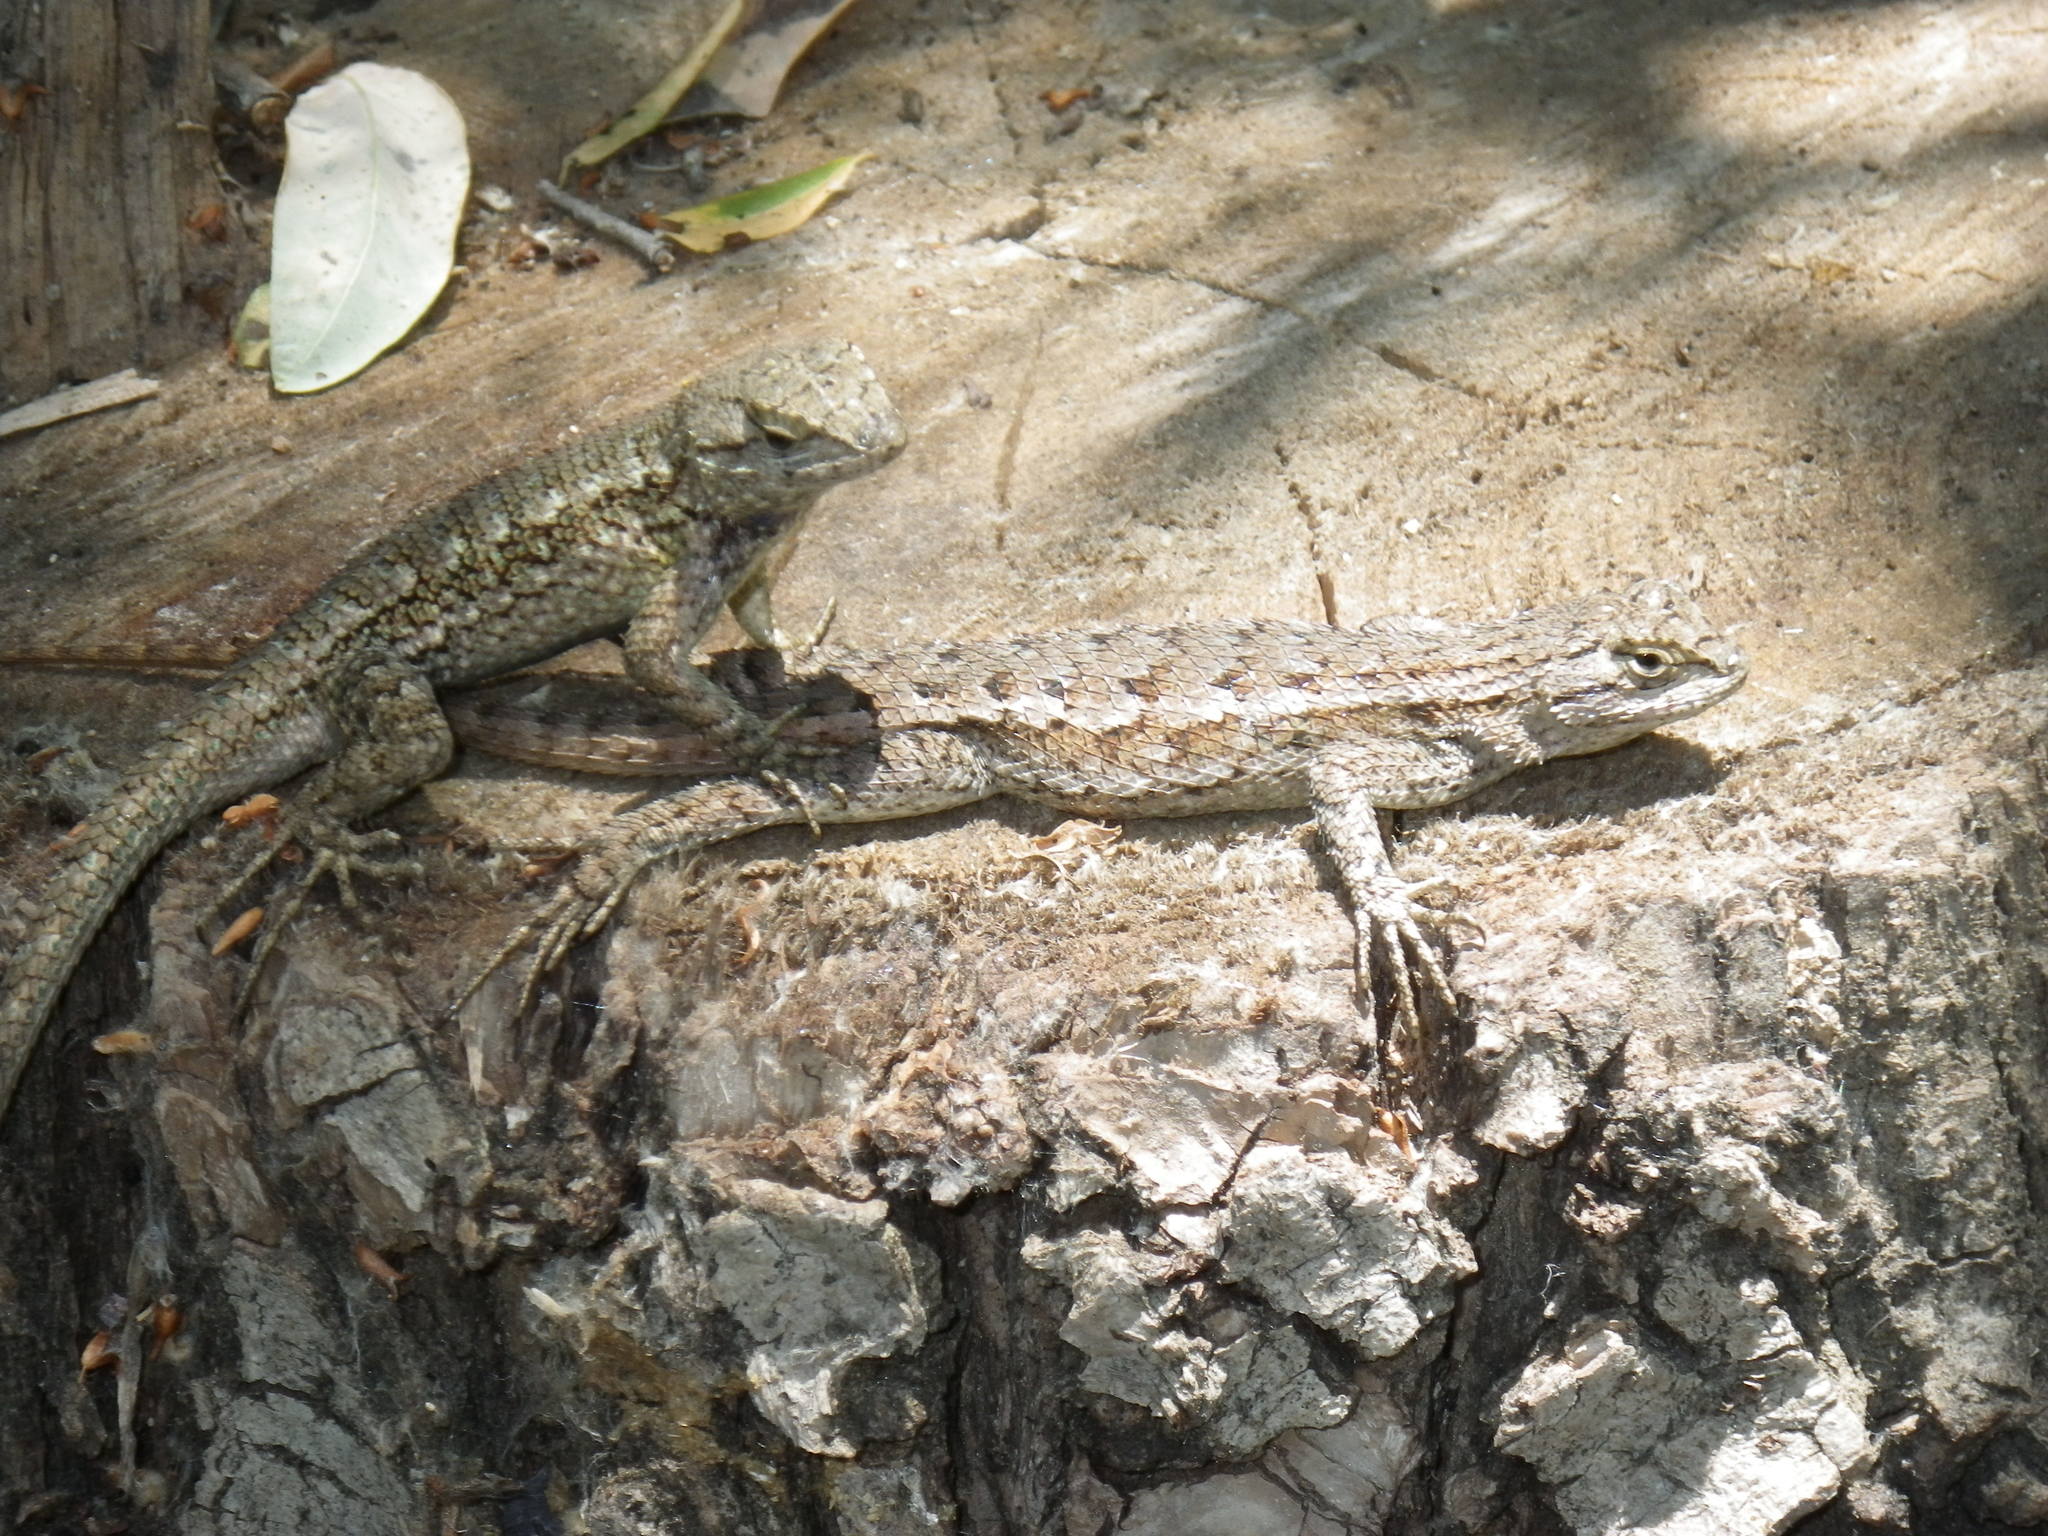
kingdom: Animalia
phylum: Chordata
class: Squamata
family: Phrynosomatidae
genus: Sceloporus
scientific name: Sceloporus occidentalis
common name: Western fence lizard
